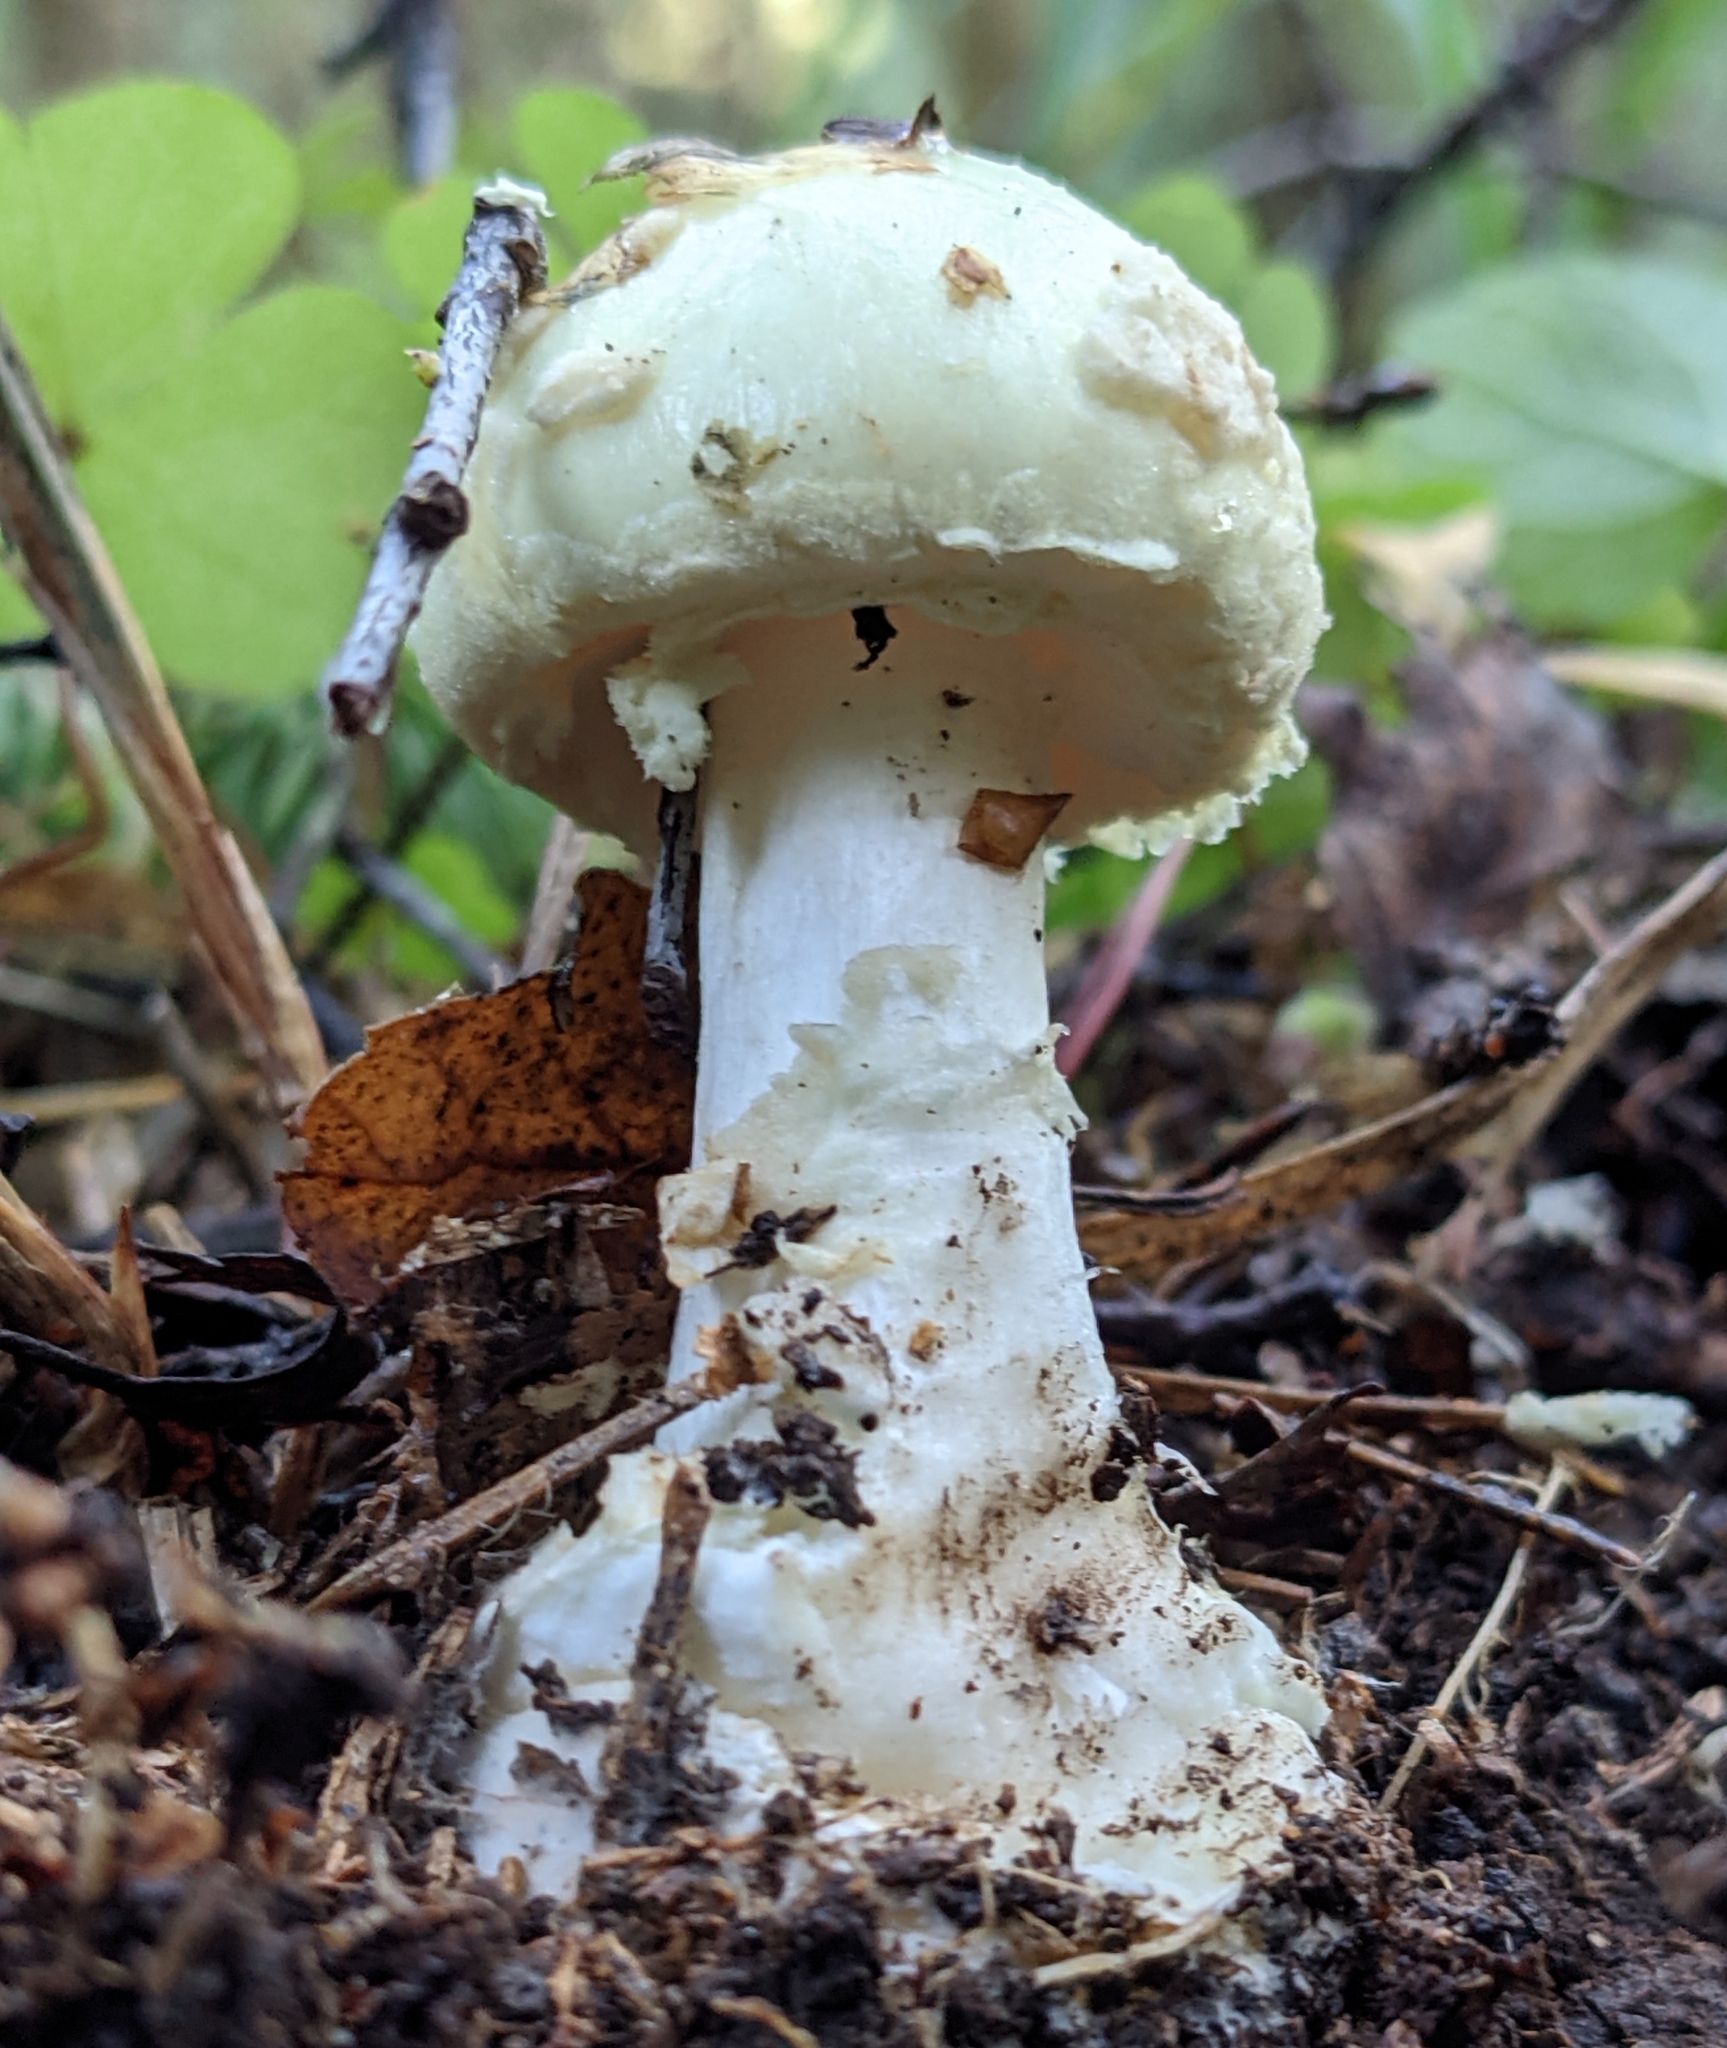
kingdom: Fungi
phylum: Basidiomycota
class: Agaricomycetes
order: Agaricales
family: Amanitaceae
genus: Amanita
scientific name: Amanita citrina
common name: False death-cap
